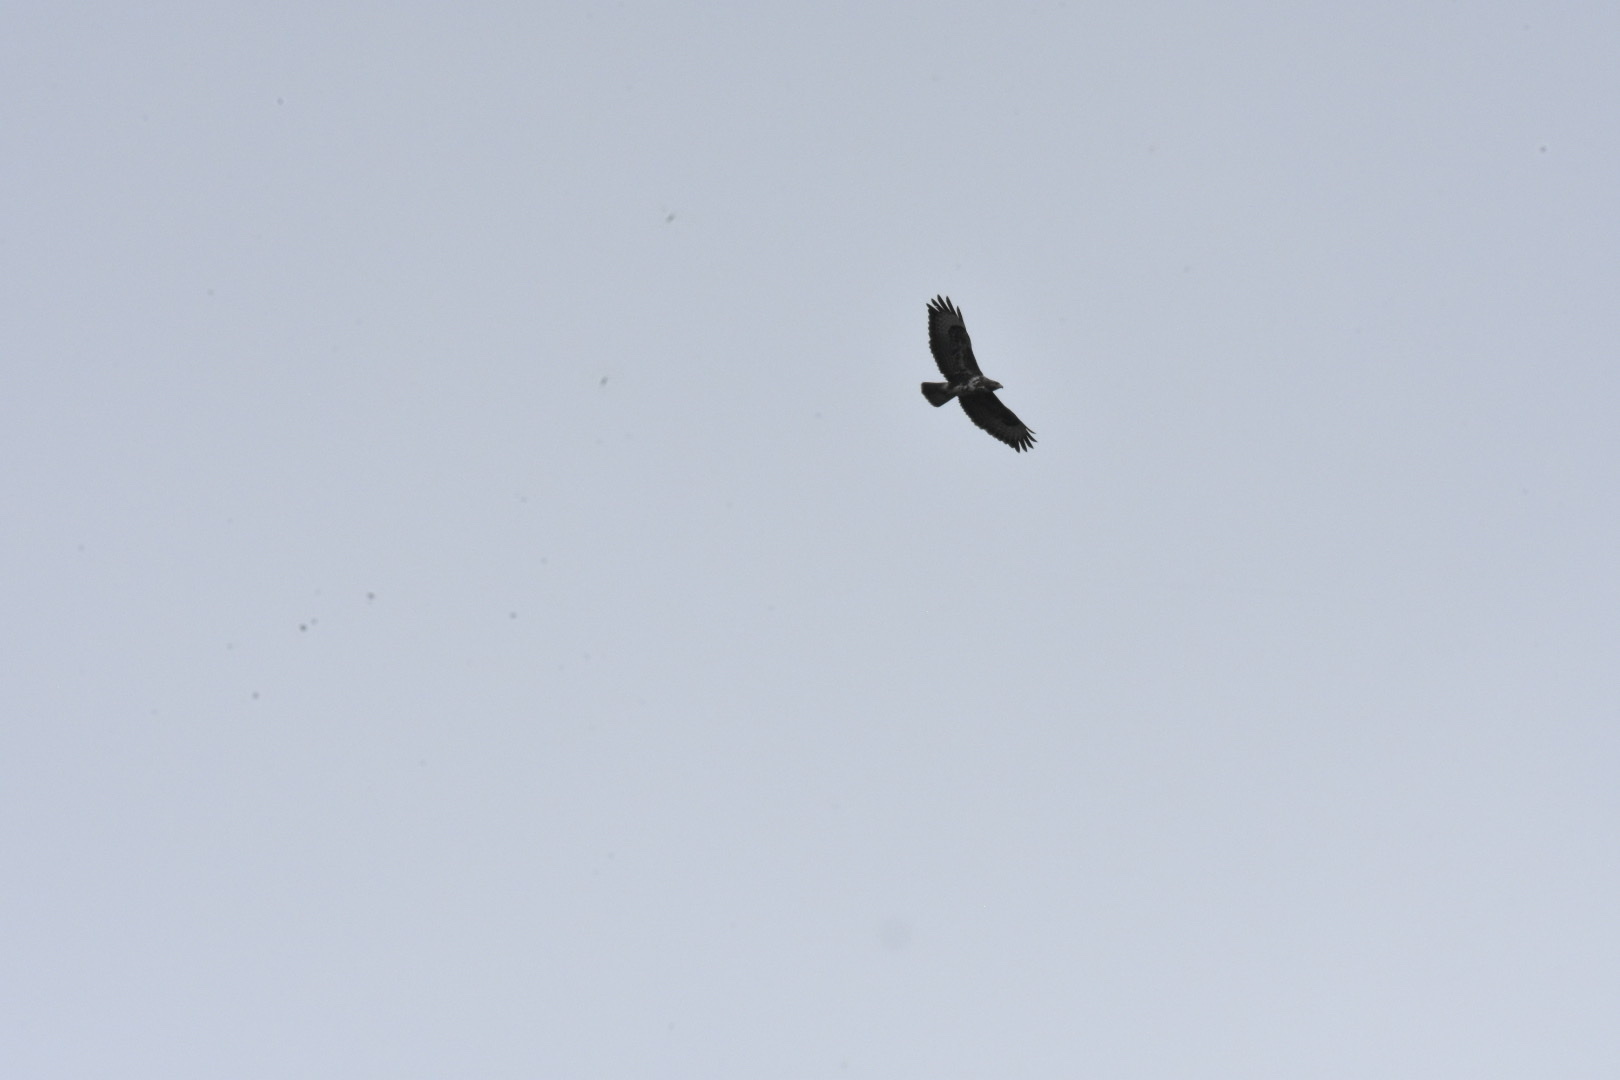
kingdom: Animalia
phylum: Chordata
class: Aves
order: Accipitriformes
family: Accipitridae
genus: Buteo
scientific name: Buteo buteo
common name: Common buzzard
